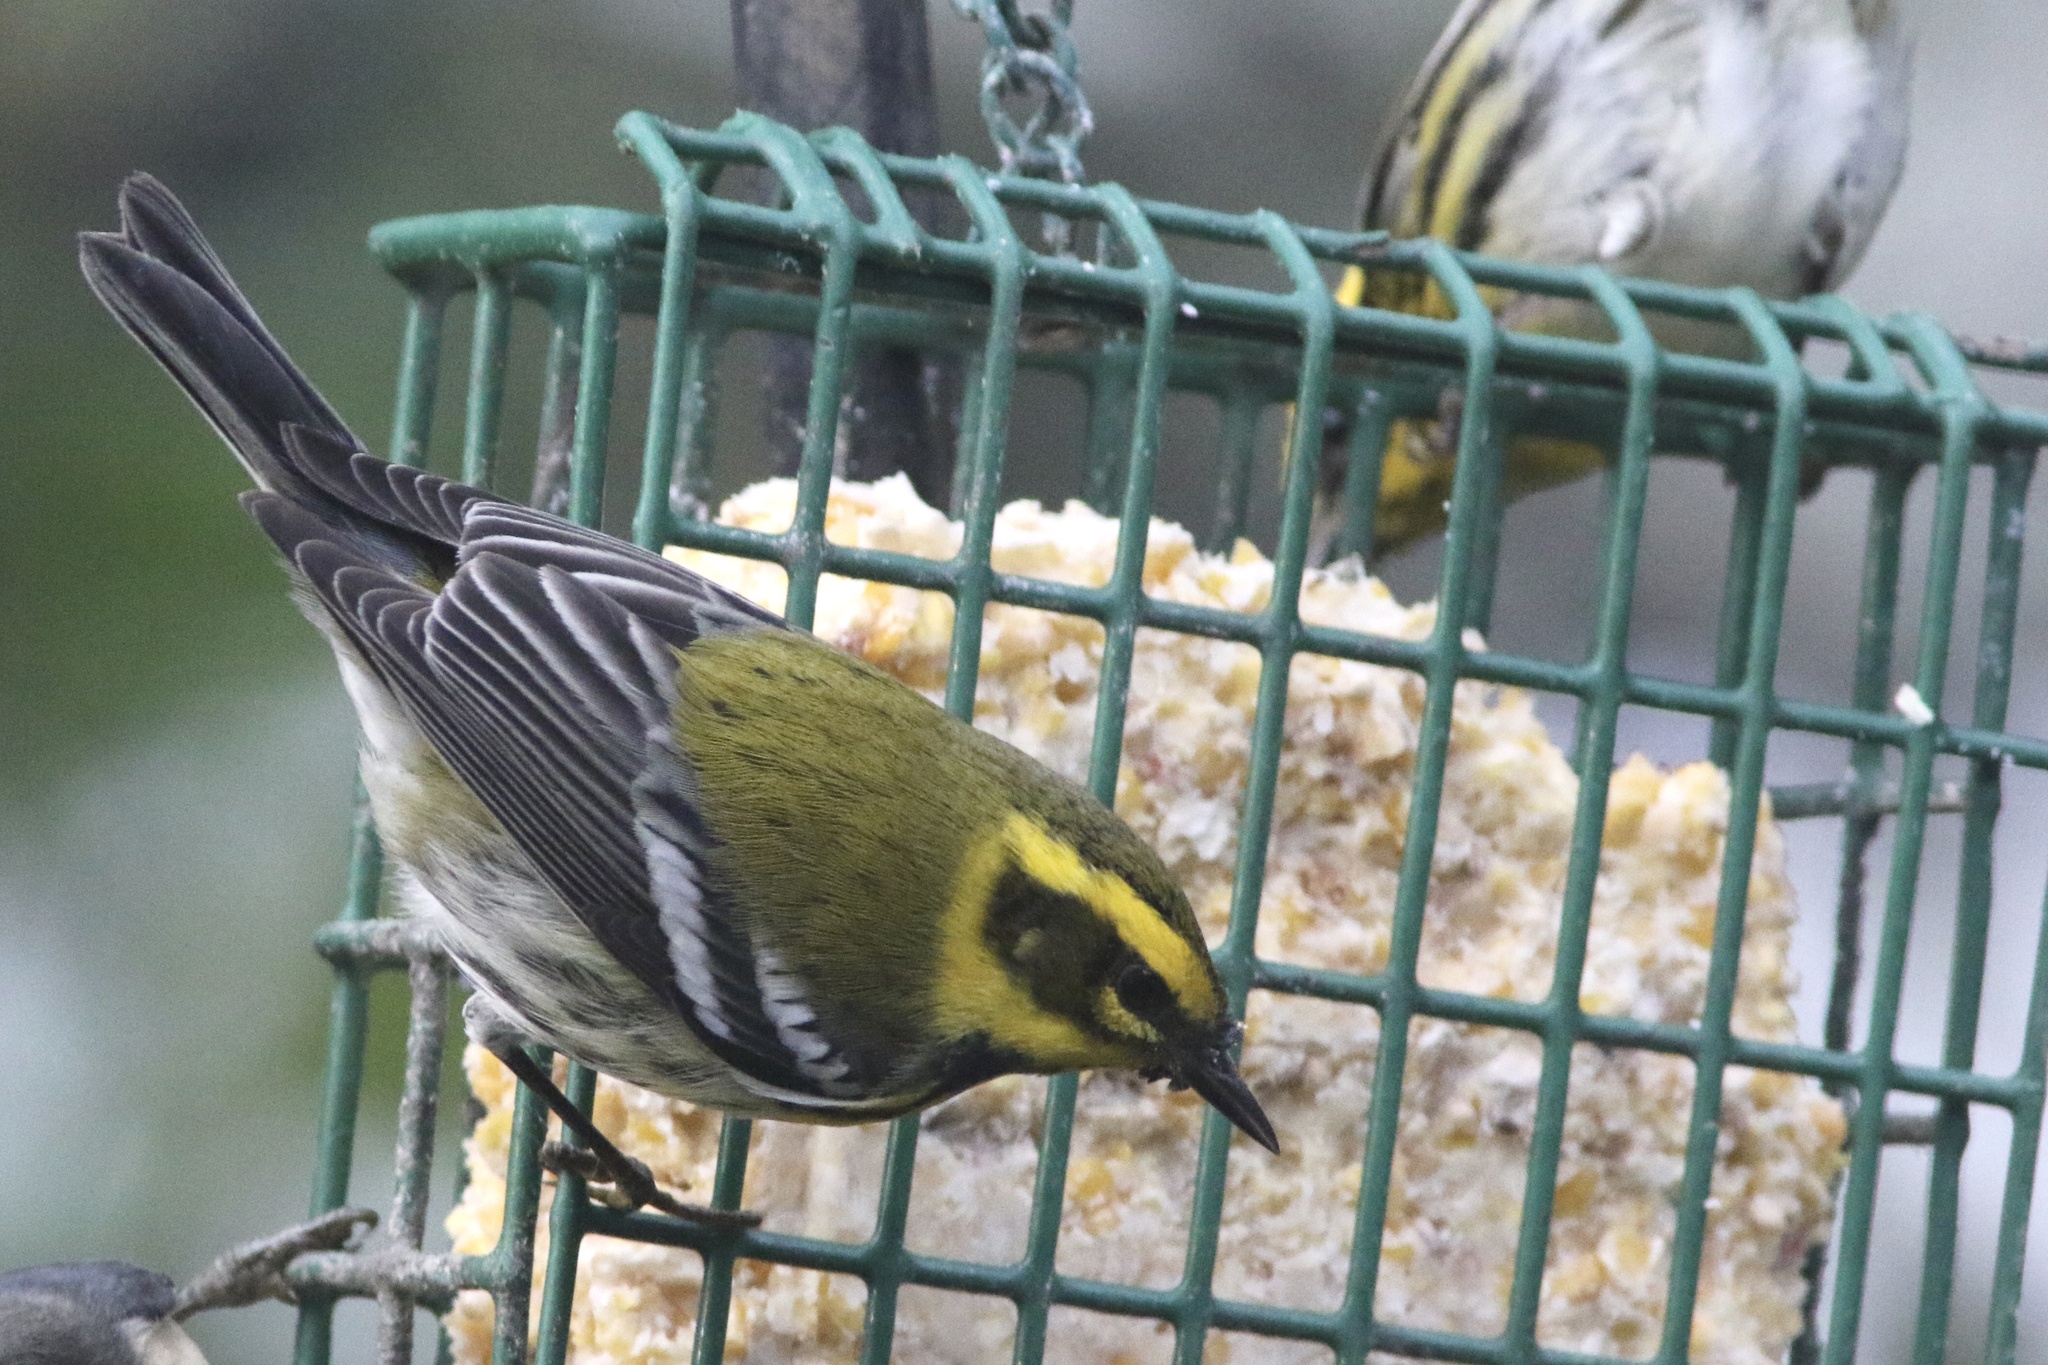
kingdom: Animalia
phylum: Chordata
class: Aves
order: Passeriformes
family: Parulidae
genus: Setophaga
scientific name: Setophaga townsendi
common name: Townsend's warbler
